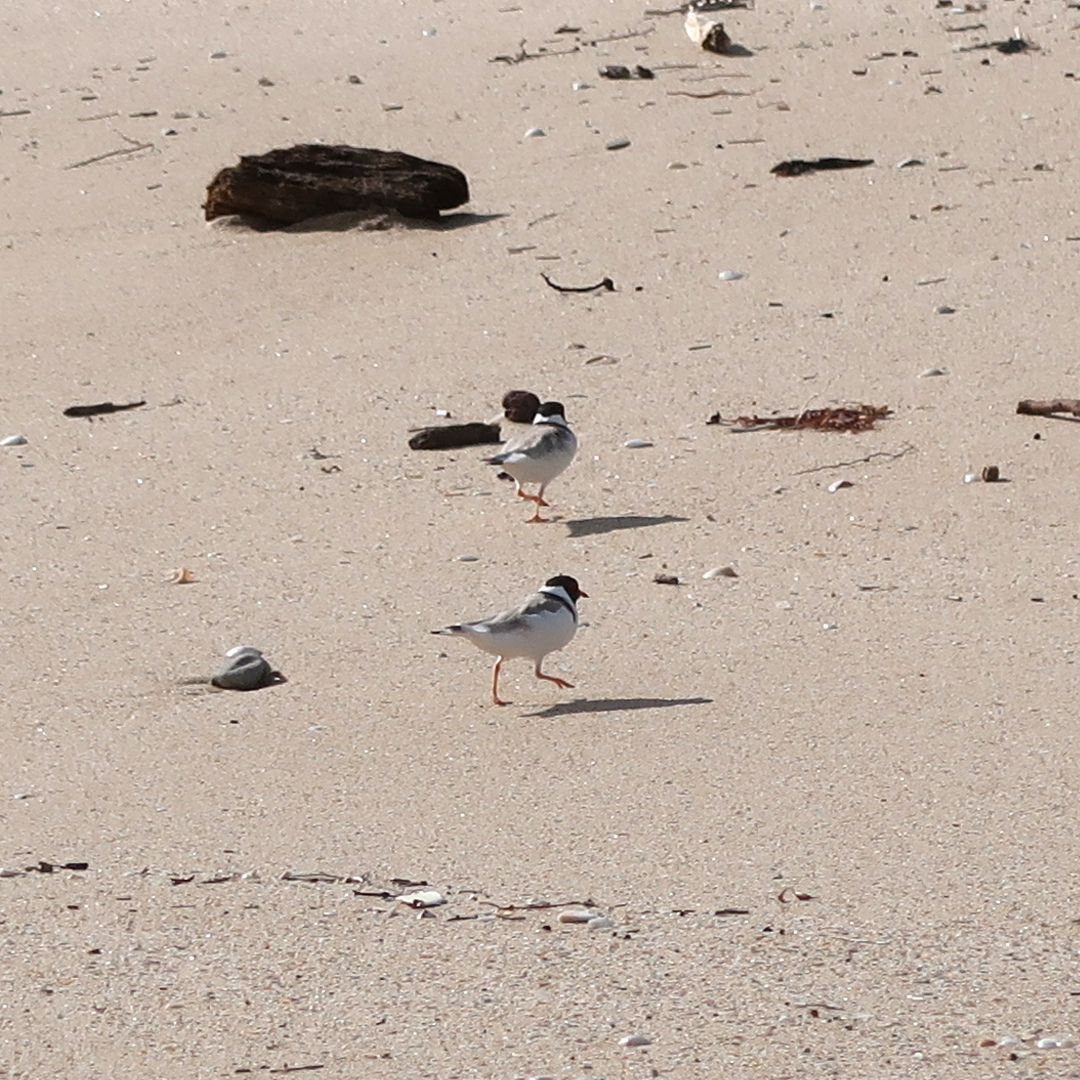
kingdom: Animalia
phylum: Chordata
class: Aves
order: Charadriiformes
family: Charadriidae
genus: Thinornis
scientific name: Thinornis cucullatus
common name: Hooded dotterel
